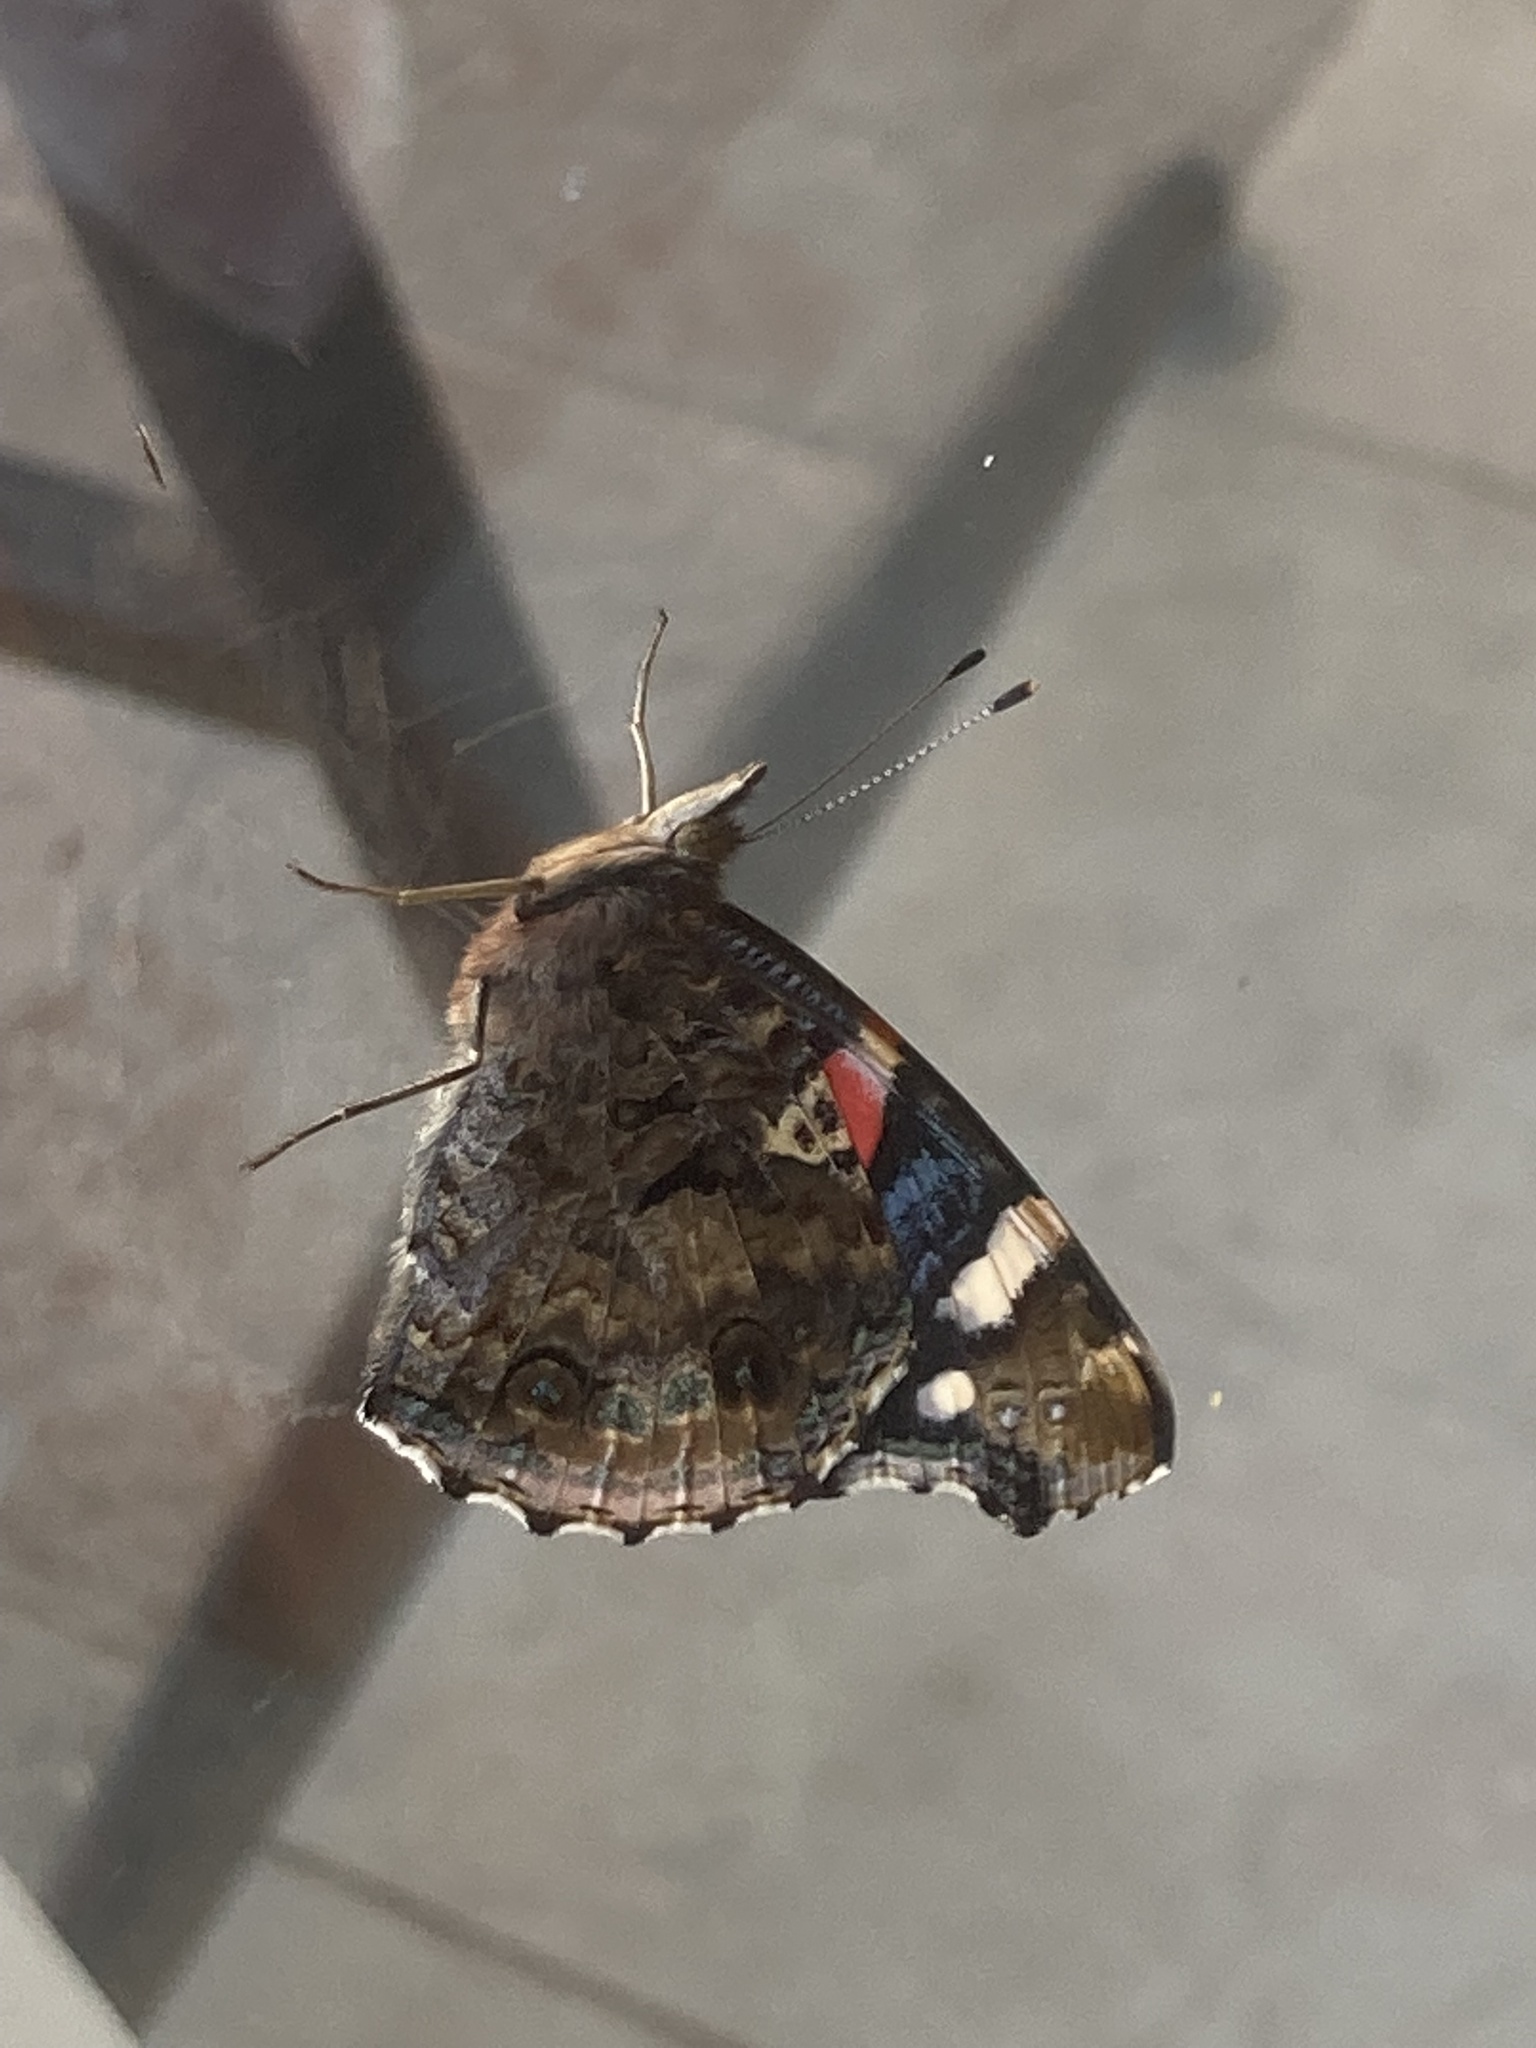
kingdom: Animalia
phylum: Arthropoda
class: Insecta
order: Lepidoptera
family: Nymphalidae
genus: Vanessa
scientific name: Vanessa atalanta
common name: Red admiral
